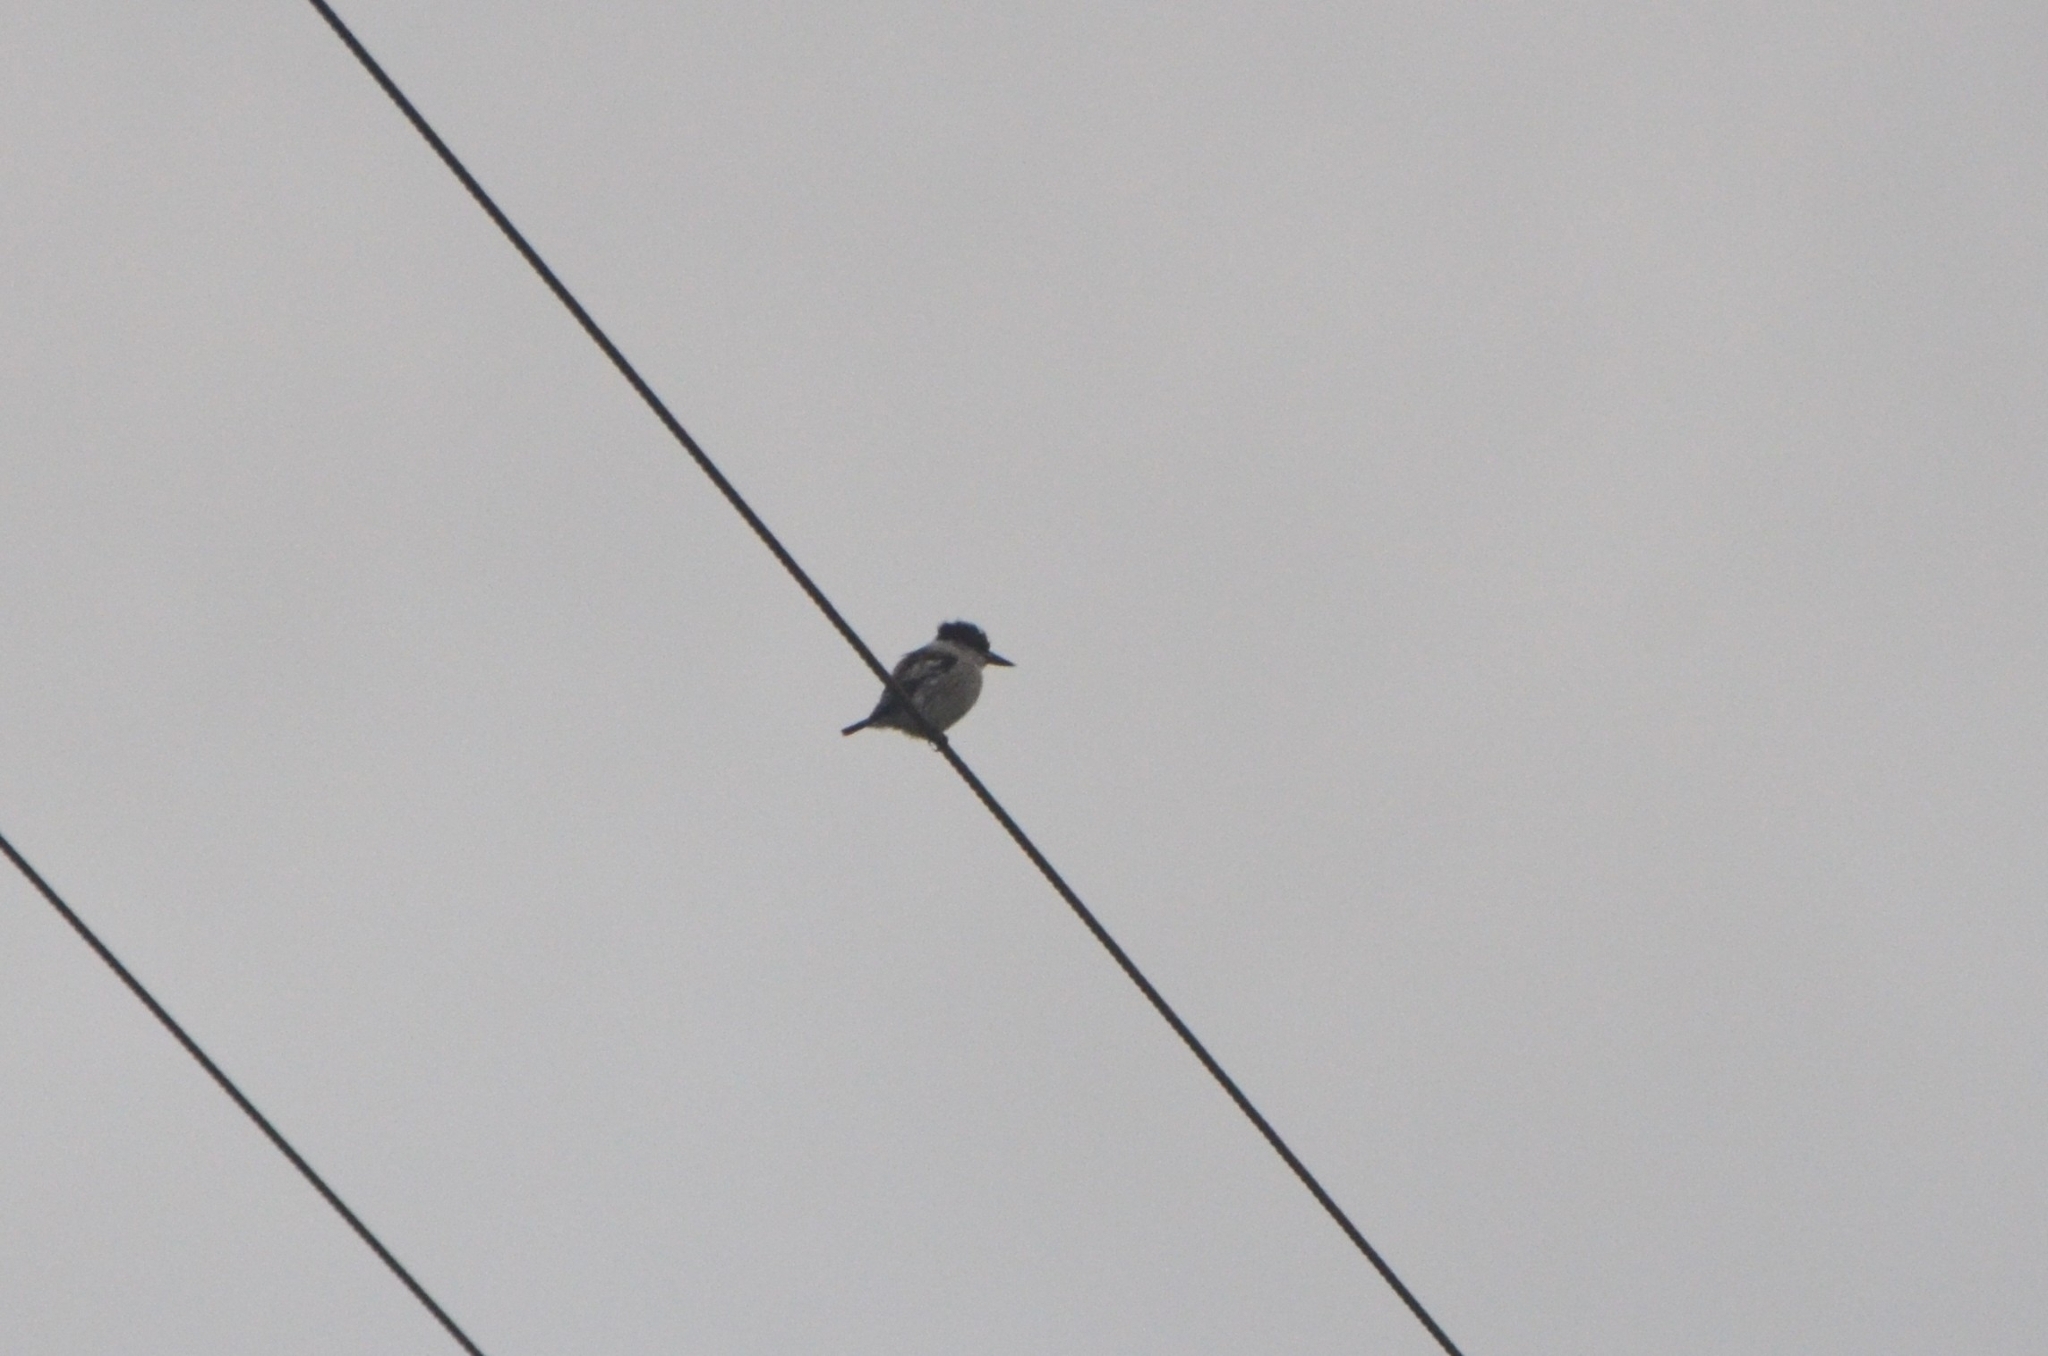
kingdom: Animalia
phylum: Chordata
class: Aves
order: Coraciiformes
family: Alcedinidae
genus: Halcyon
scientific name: Halcyon chelicuti
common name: Striped kingfisher
